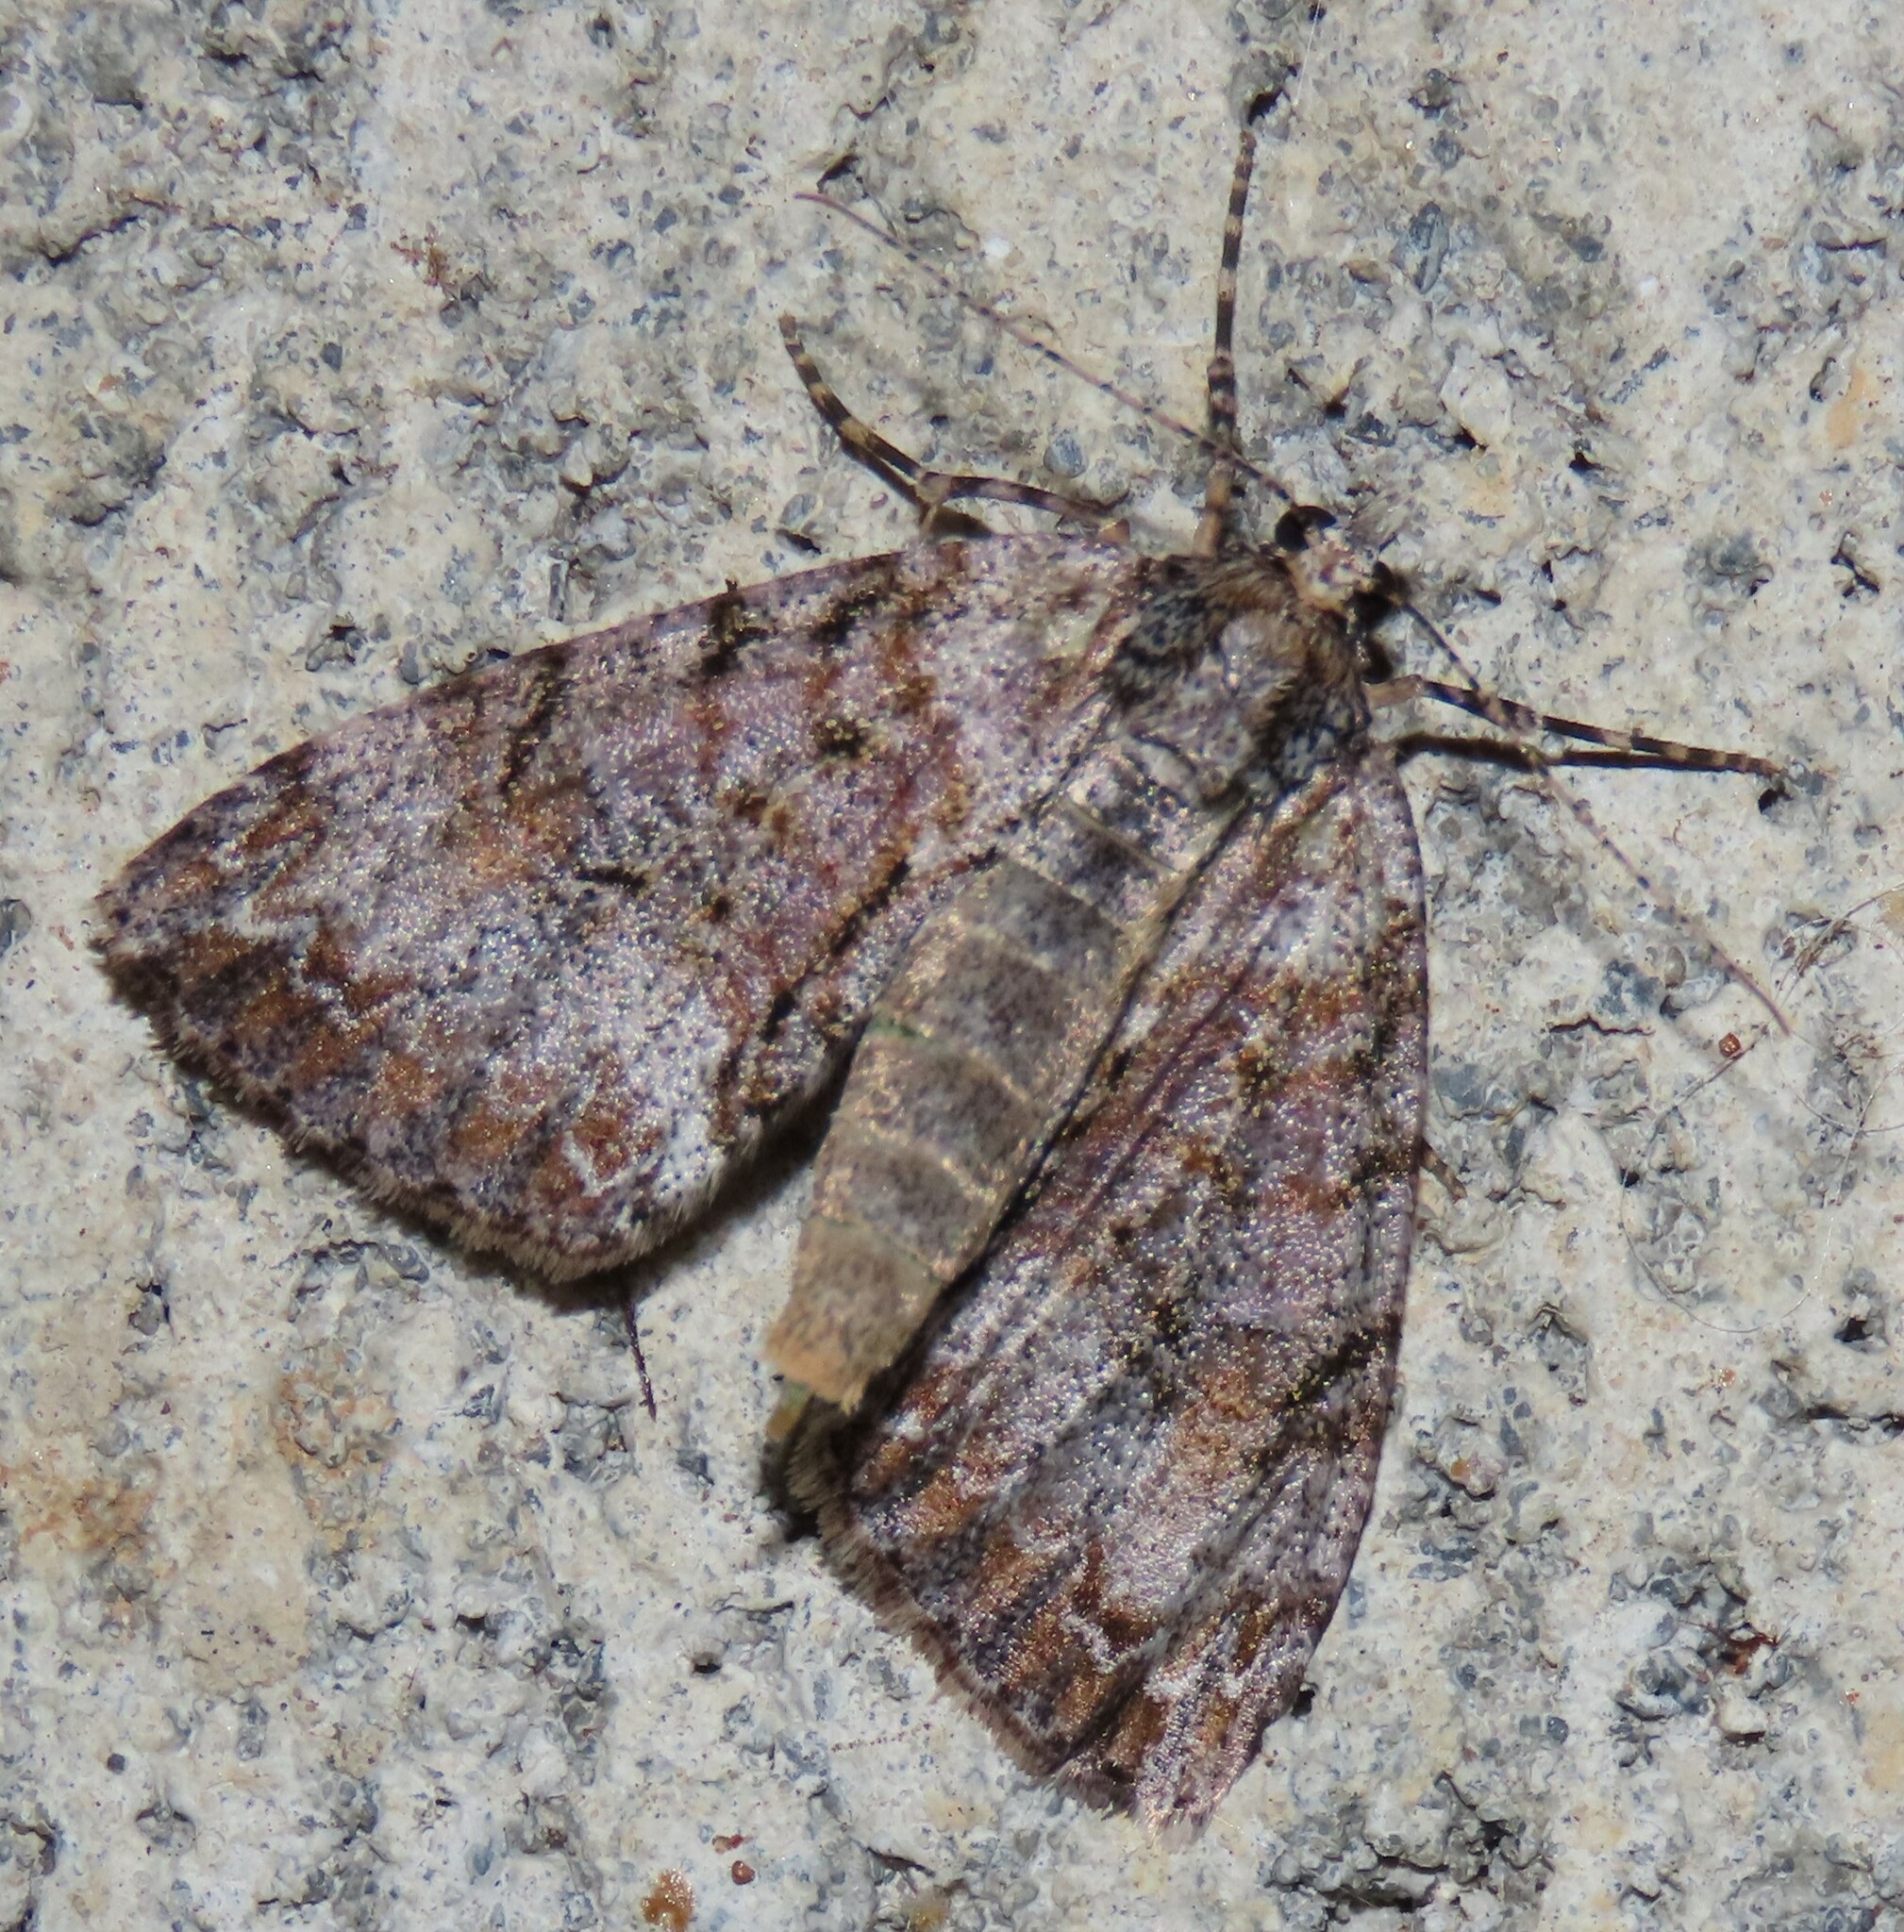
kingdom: Animalia
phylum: Arthropoda
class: Insecta
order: Lepidoptera
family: Geometridae
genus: Pseudocoremia
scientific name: Pseudocoremia suavis
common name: Common forest looper
